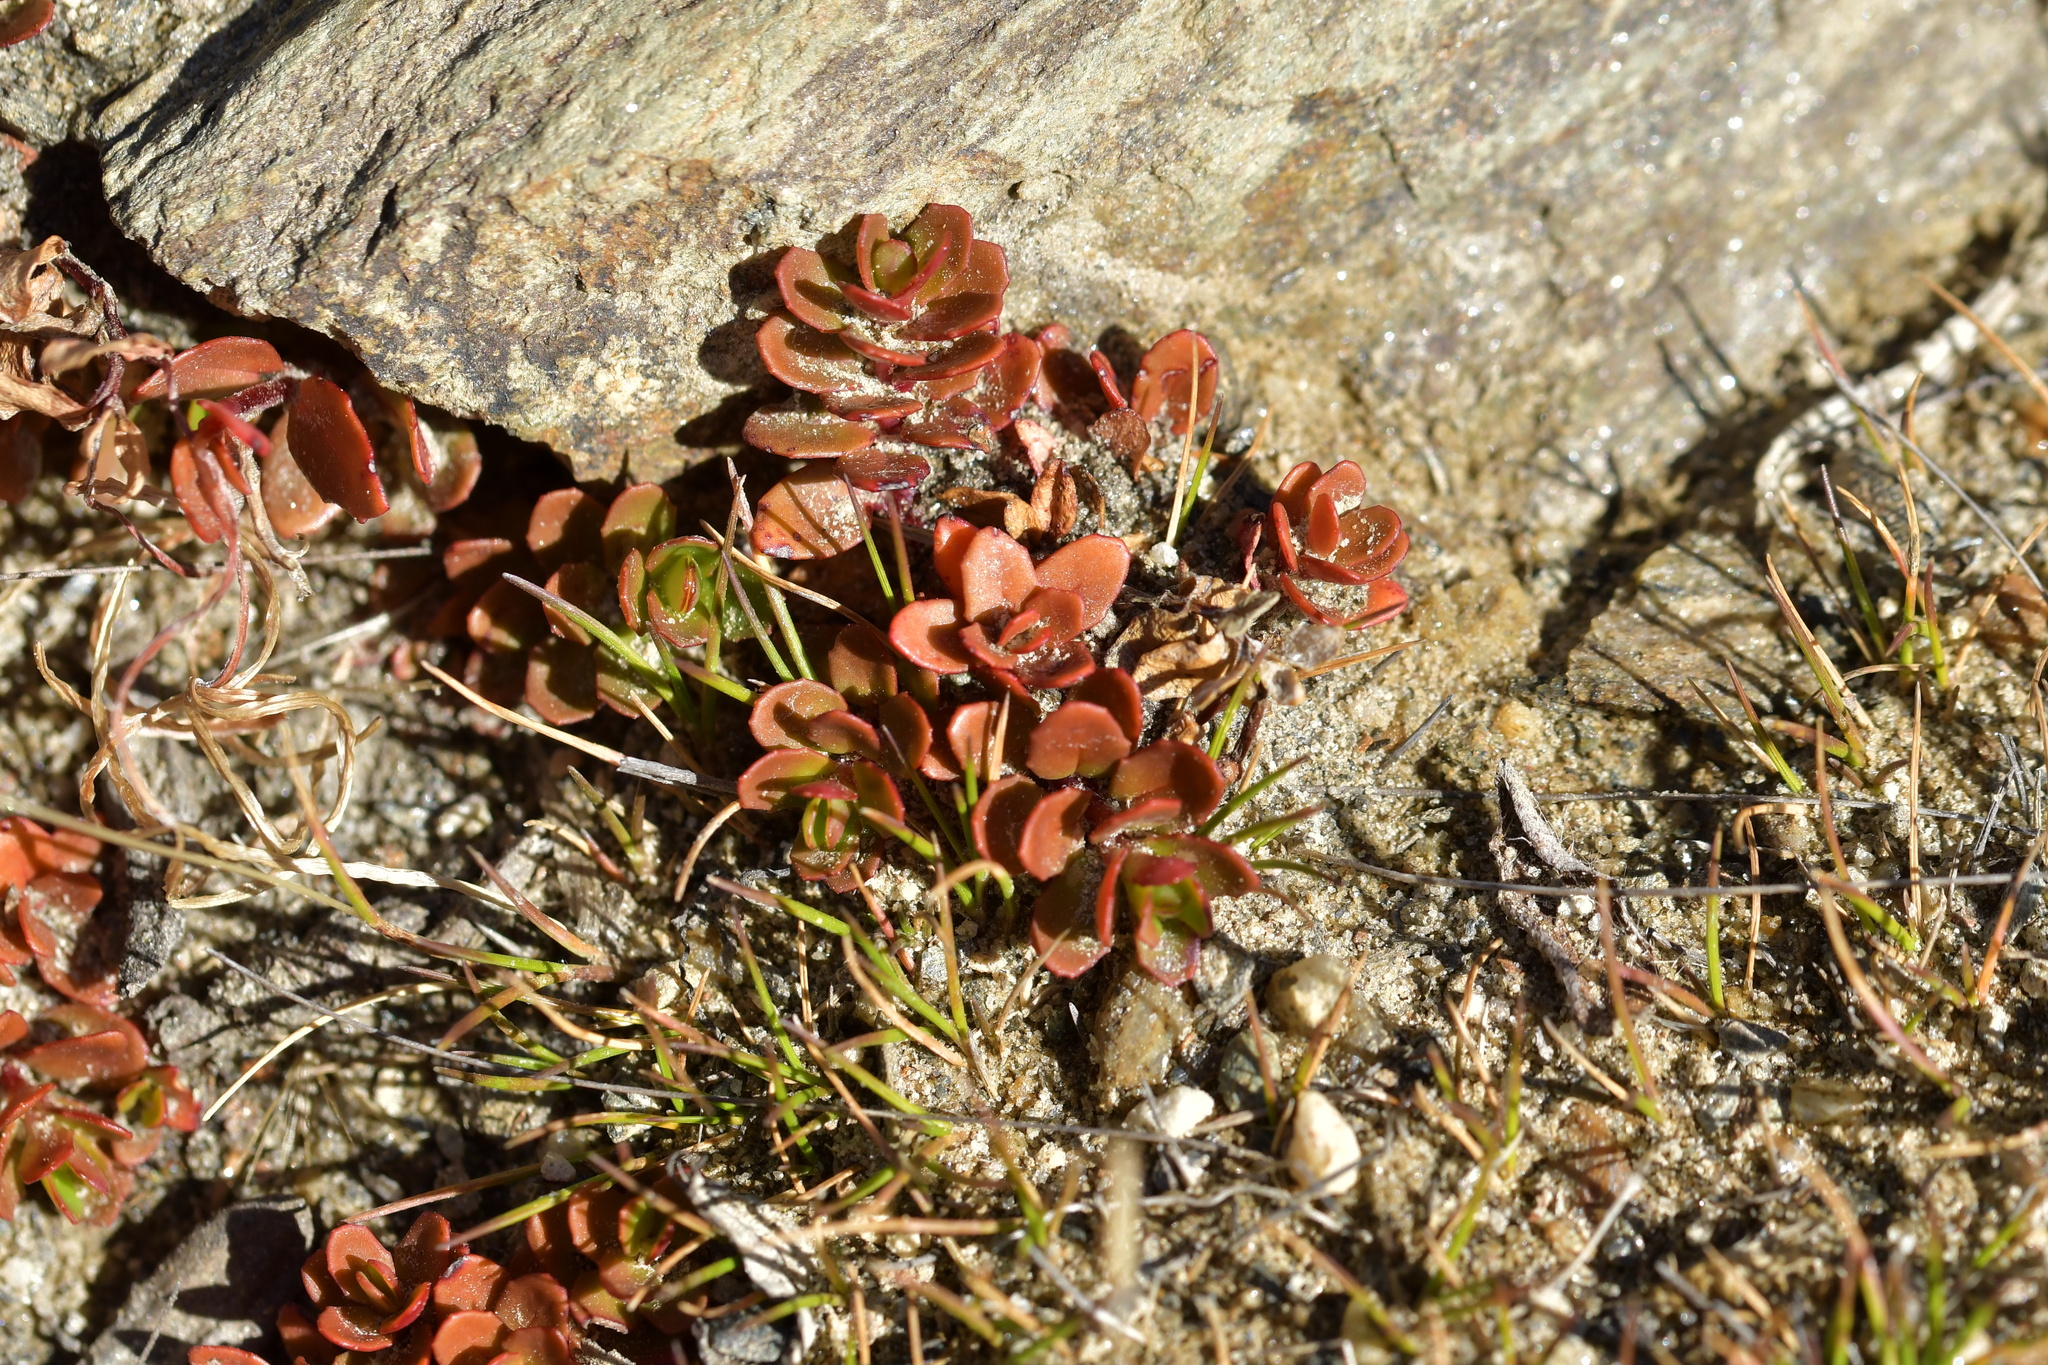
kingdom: Plantae
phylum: Tracheophyta
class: Magnoliopsida
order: Myrtales
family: Onagraceae
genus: Epilobium
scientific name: Epilobium tasmanicum
